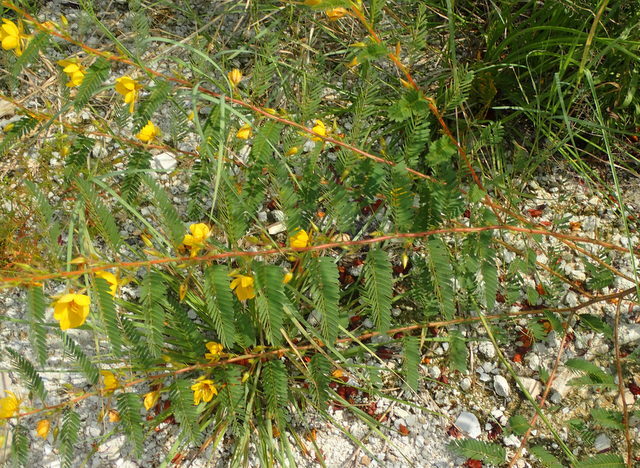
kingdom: Plantae
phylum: Tracheophyta
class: Magnoliopsida
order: Fabales
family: Fabaceae
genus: Chamaecrista
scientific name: Chamaecrista fasciculata
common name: Golden cassia
